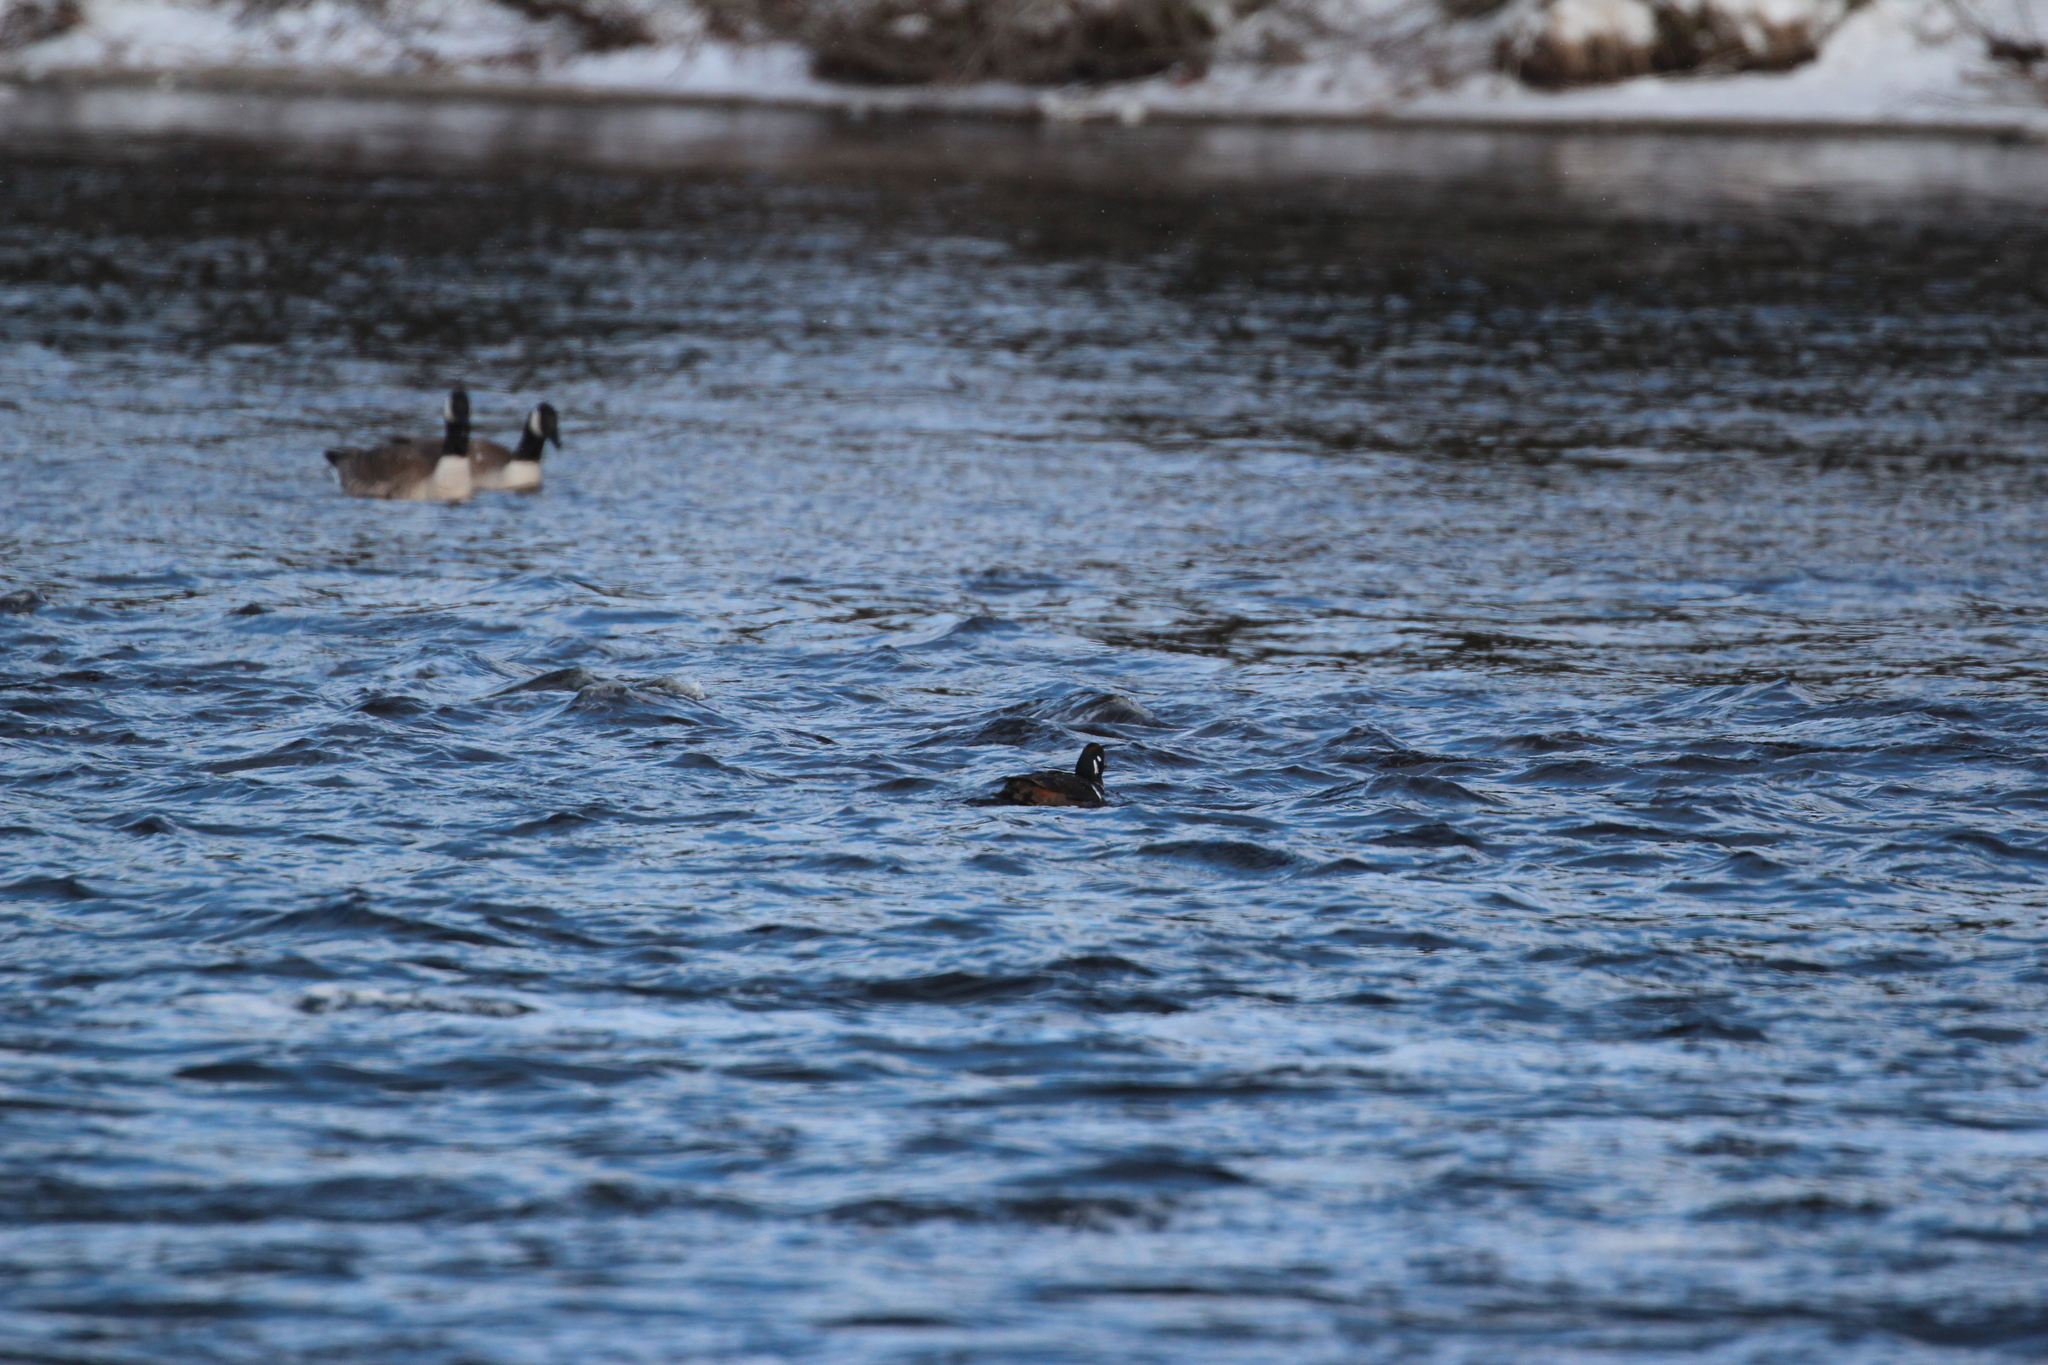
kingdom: Animalia
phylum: Chordata
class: Aves
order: Anseriformes
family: Anatidae
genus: Histrionicus
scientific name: Histrionicus histrionicus
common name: Harlequin duck
